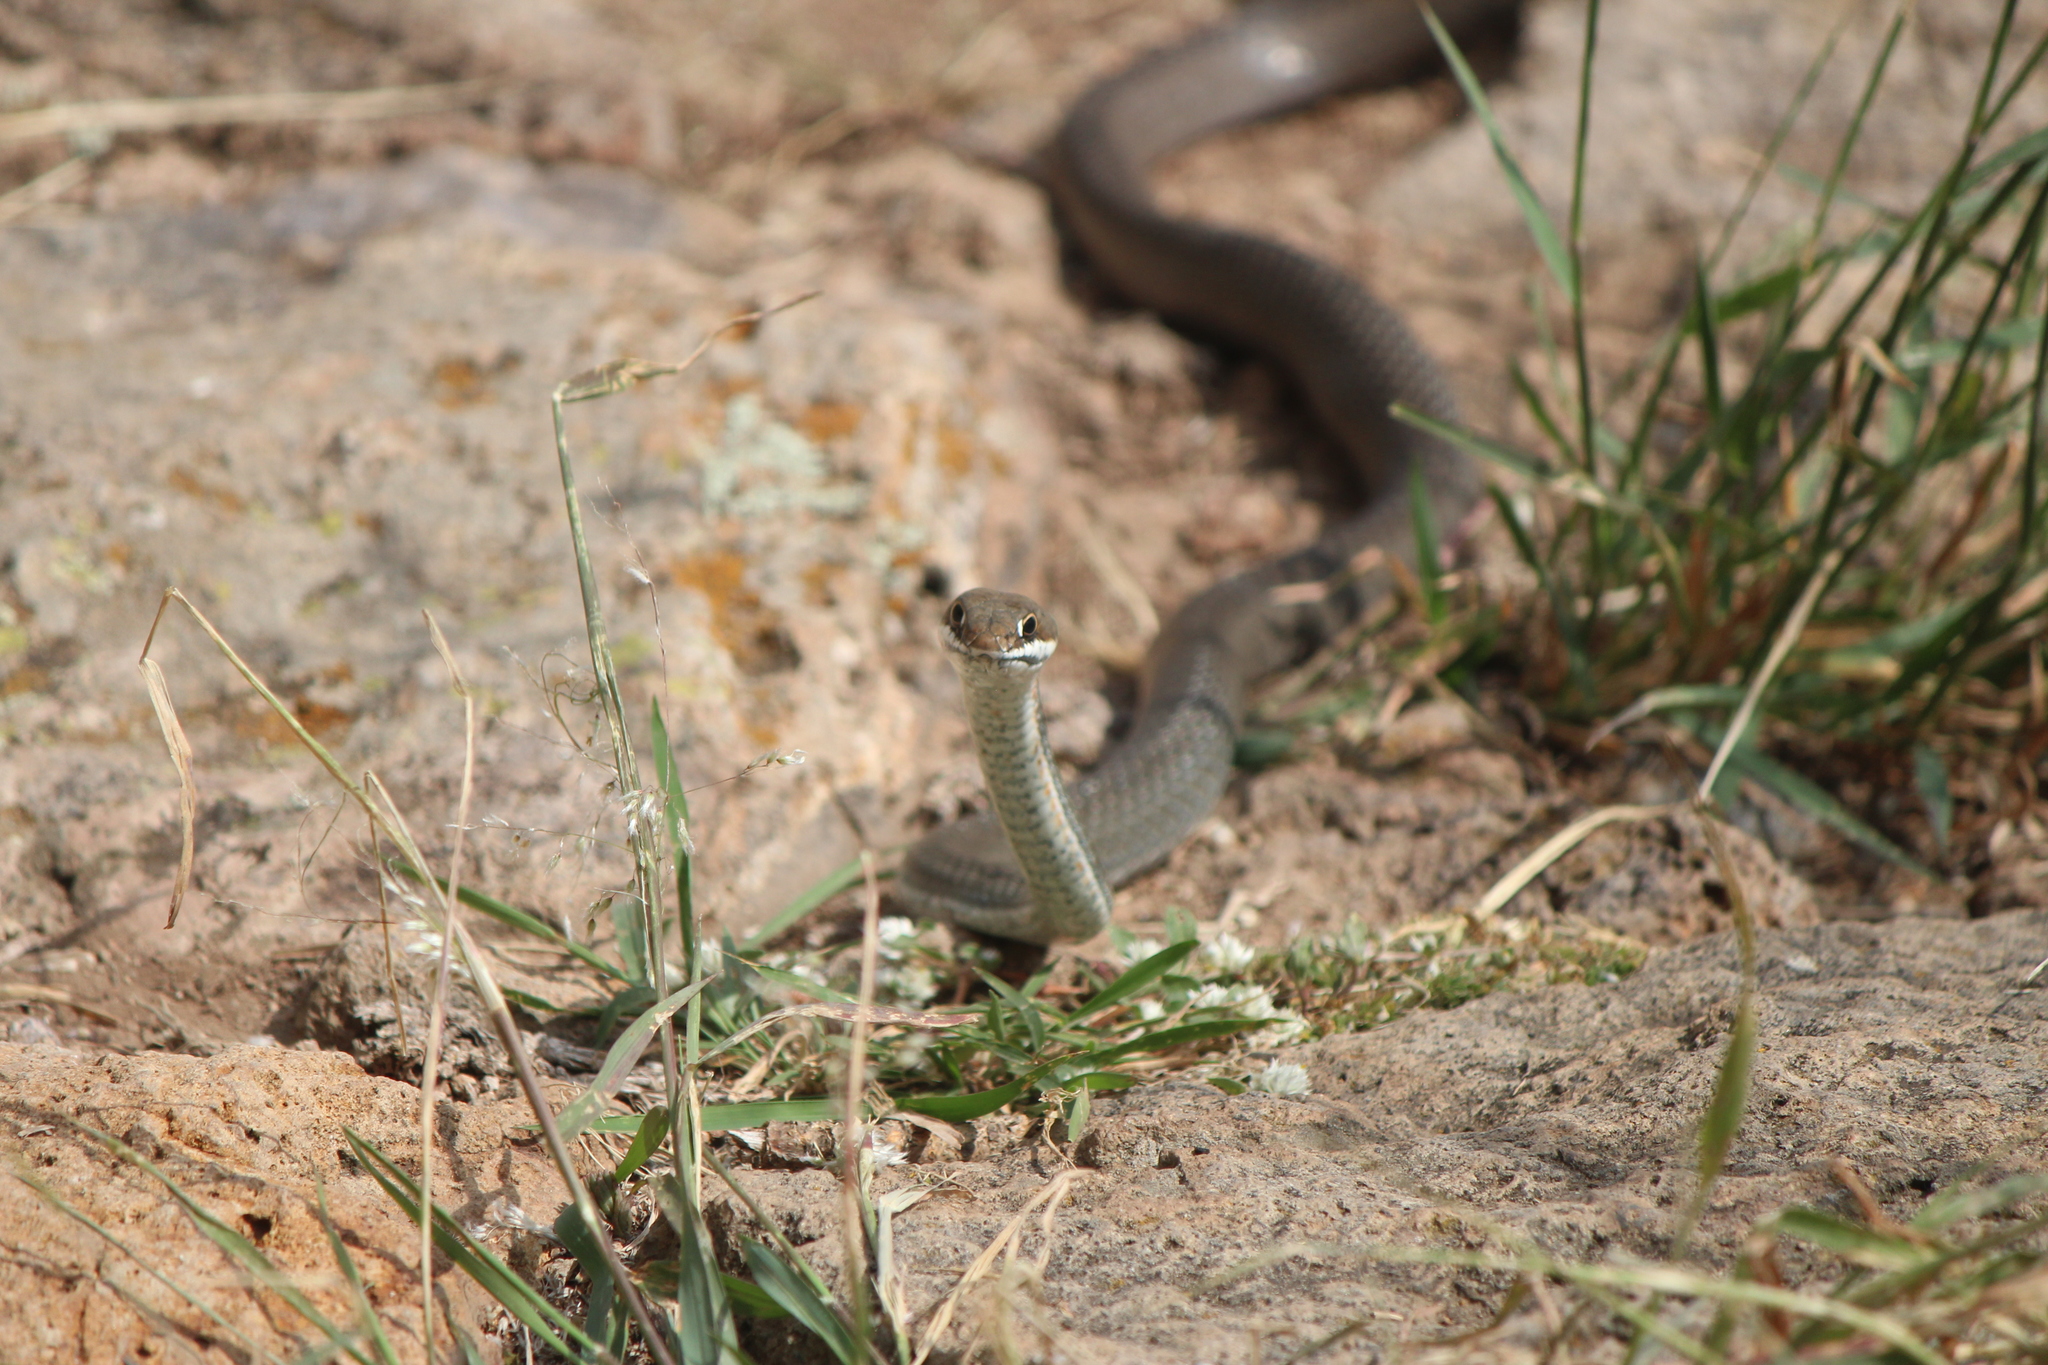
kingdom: Animalia
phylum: Chordata
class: Squamata
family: Colubridae
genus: Masticophis
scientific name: Masticophis schotti
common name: Schott's whipsnake
